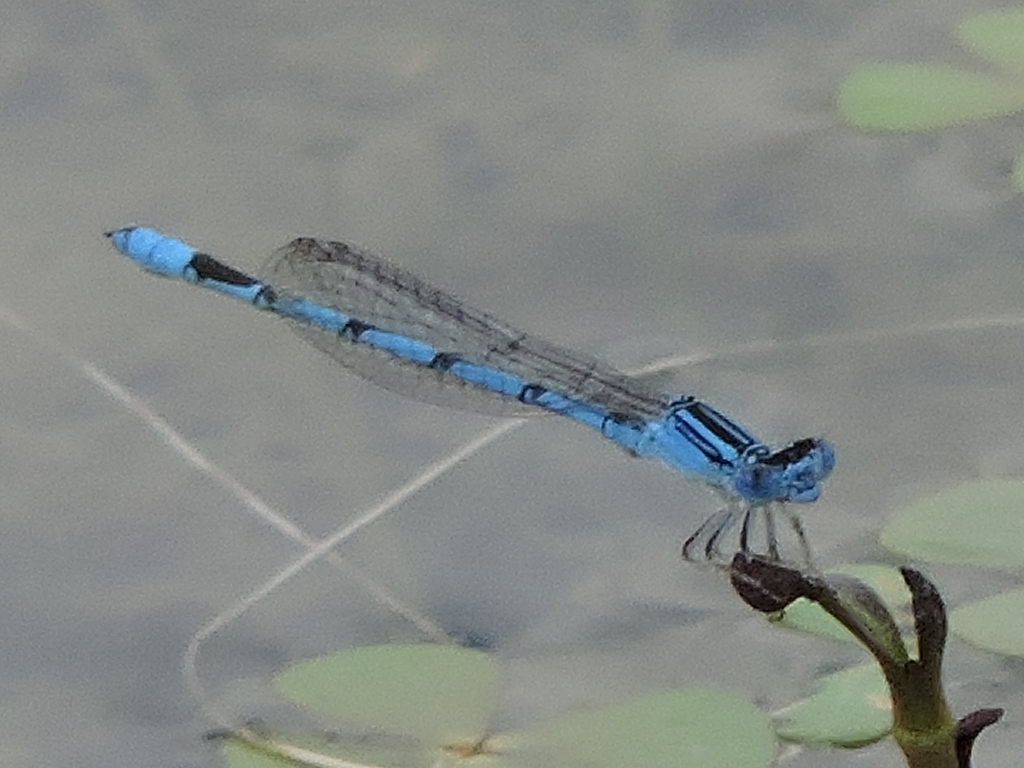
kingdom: Animalia
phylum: Arthropoda
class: Insecta
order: Odonata
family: Coenagrionidae
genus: Enallagma
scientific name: Enallagma basidens
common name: Double-striped bluet
